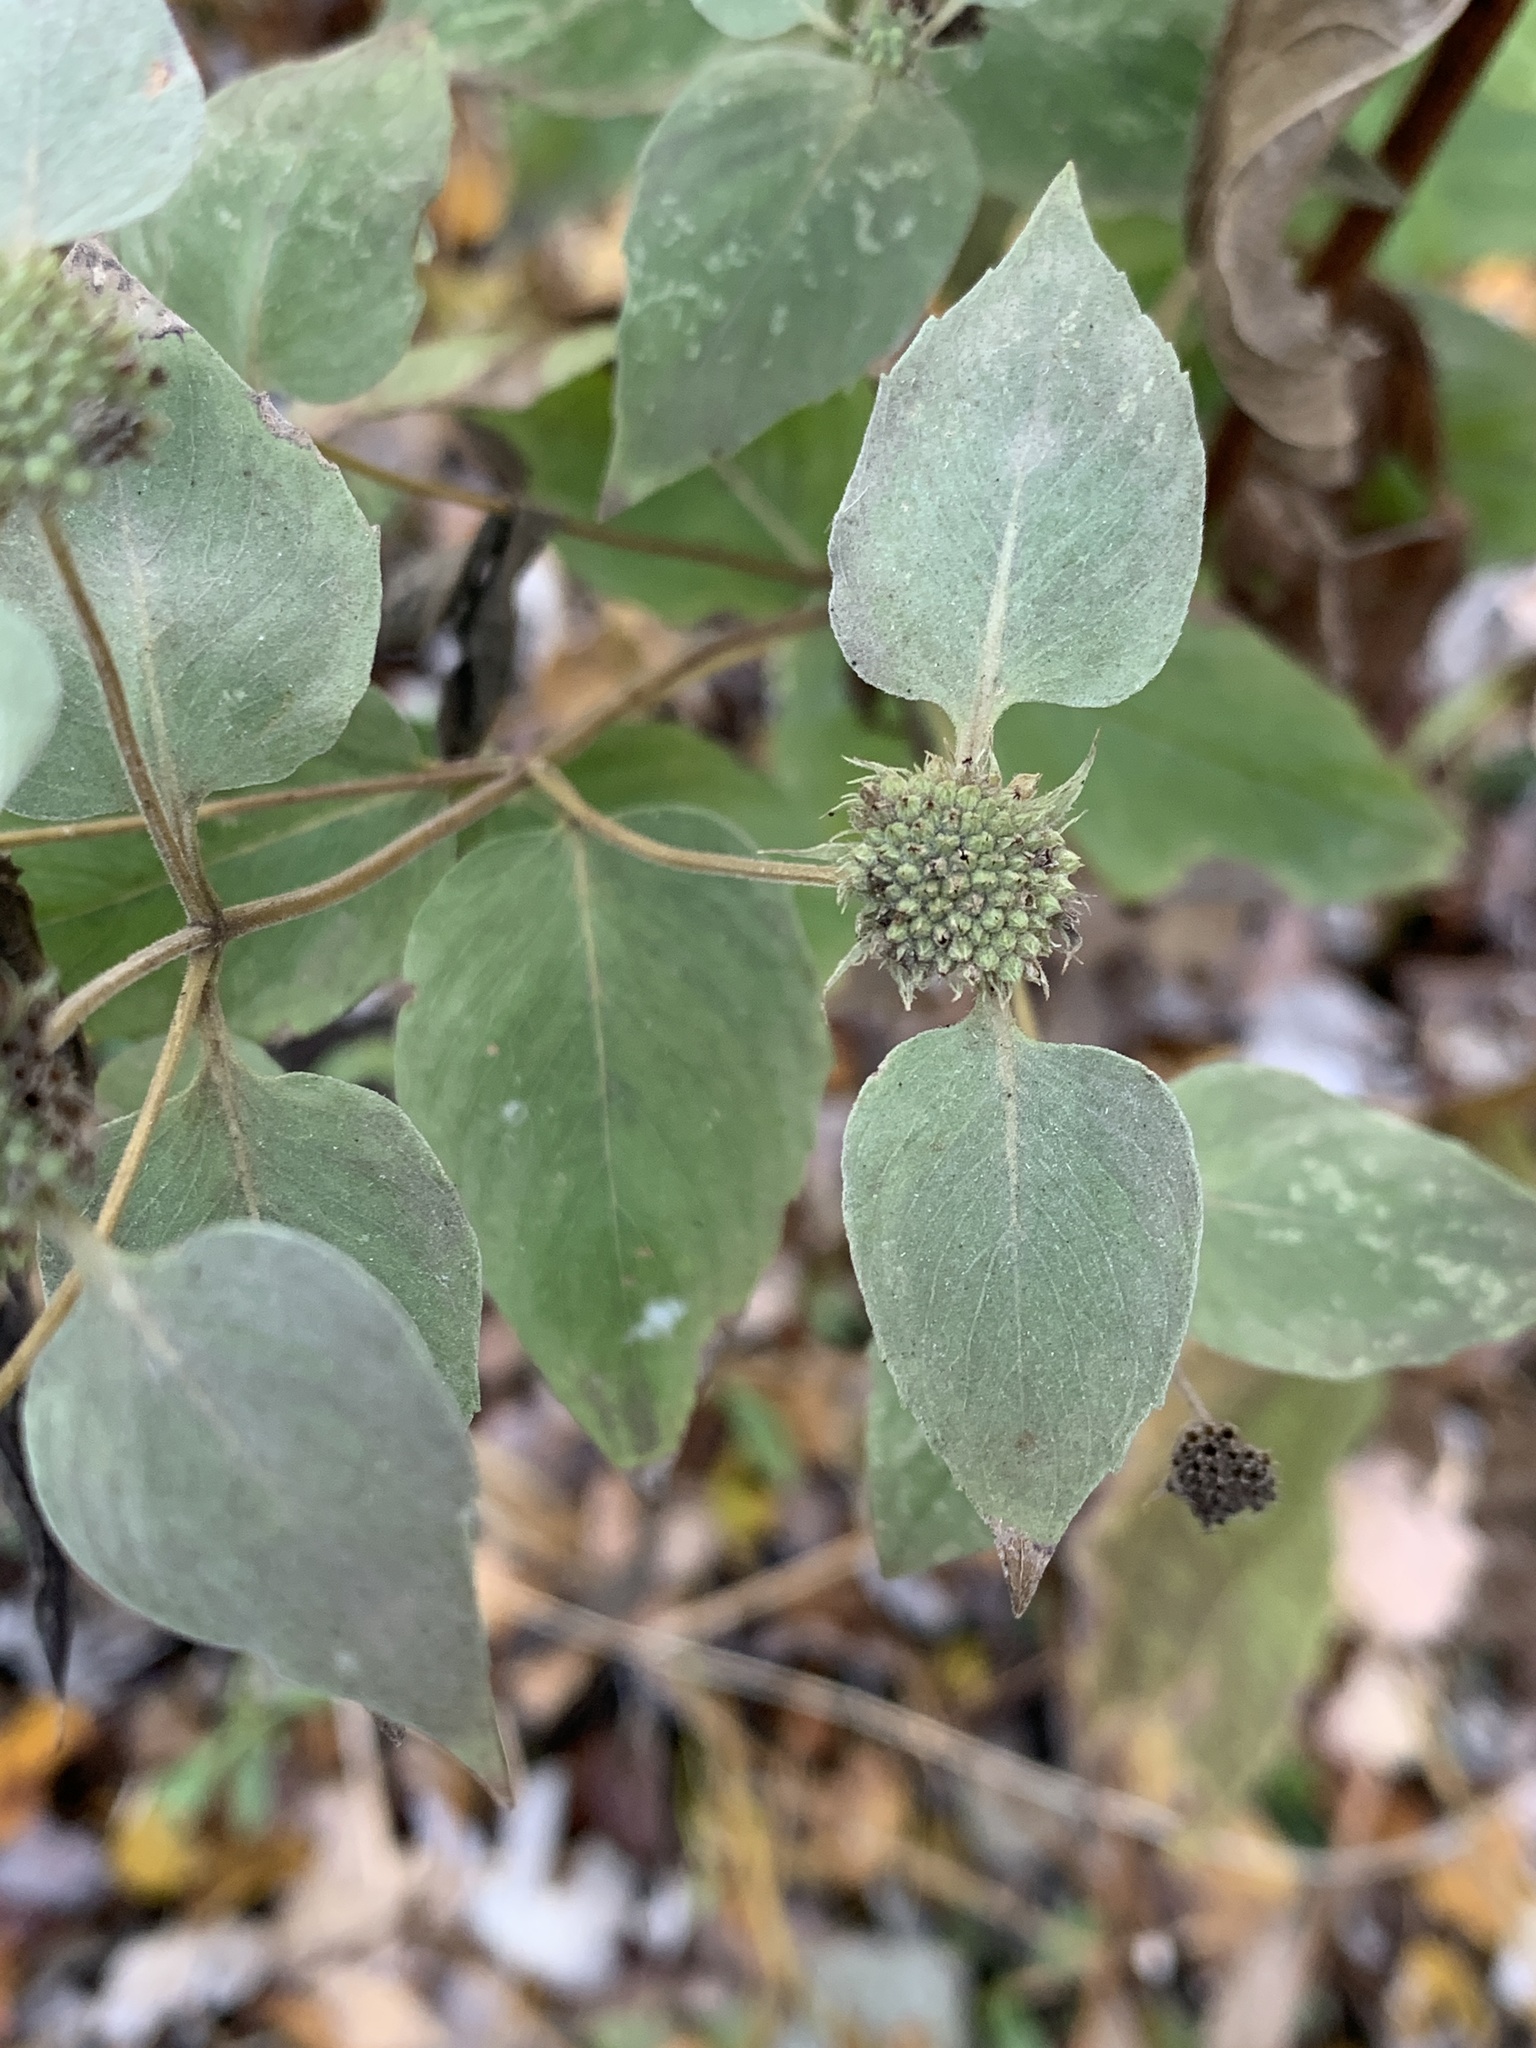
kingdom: Plantae
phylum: Tracheophyta
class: Magnoliopsida
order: Lamiales
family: Lamiaceae
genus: Pycnanthemum
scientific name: Pycnanthemum muticum
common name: Blunt mountain-mint
